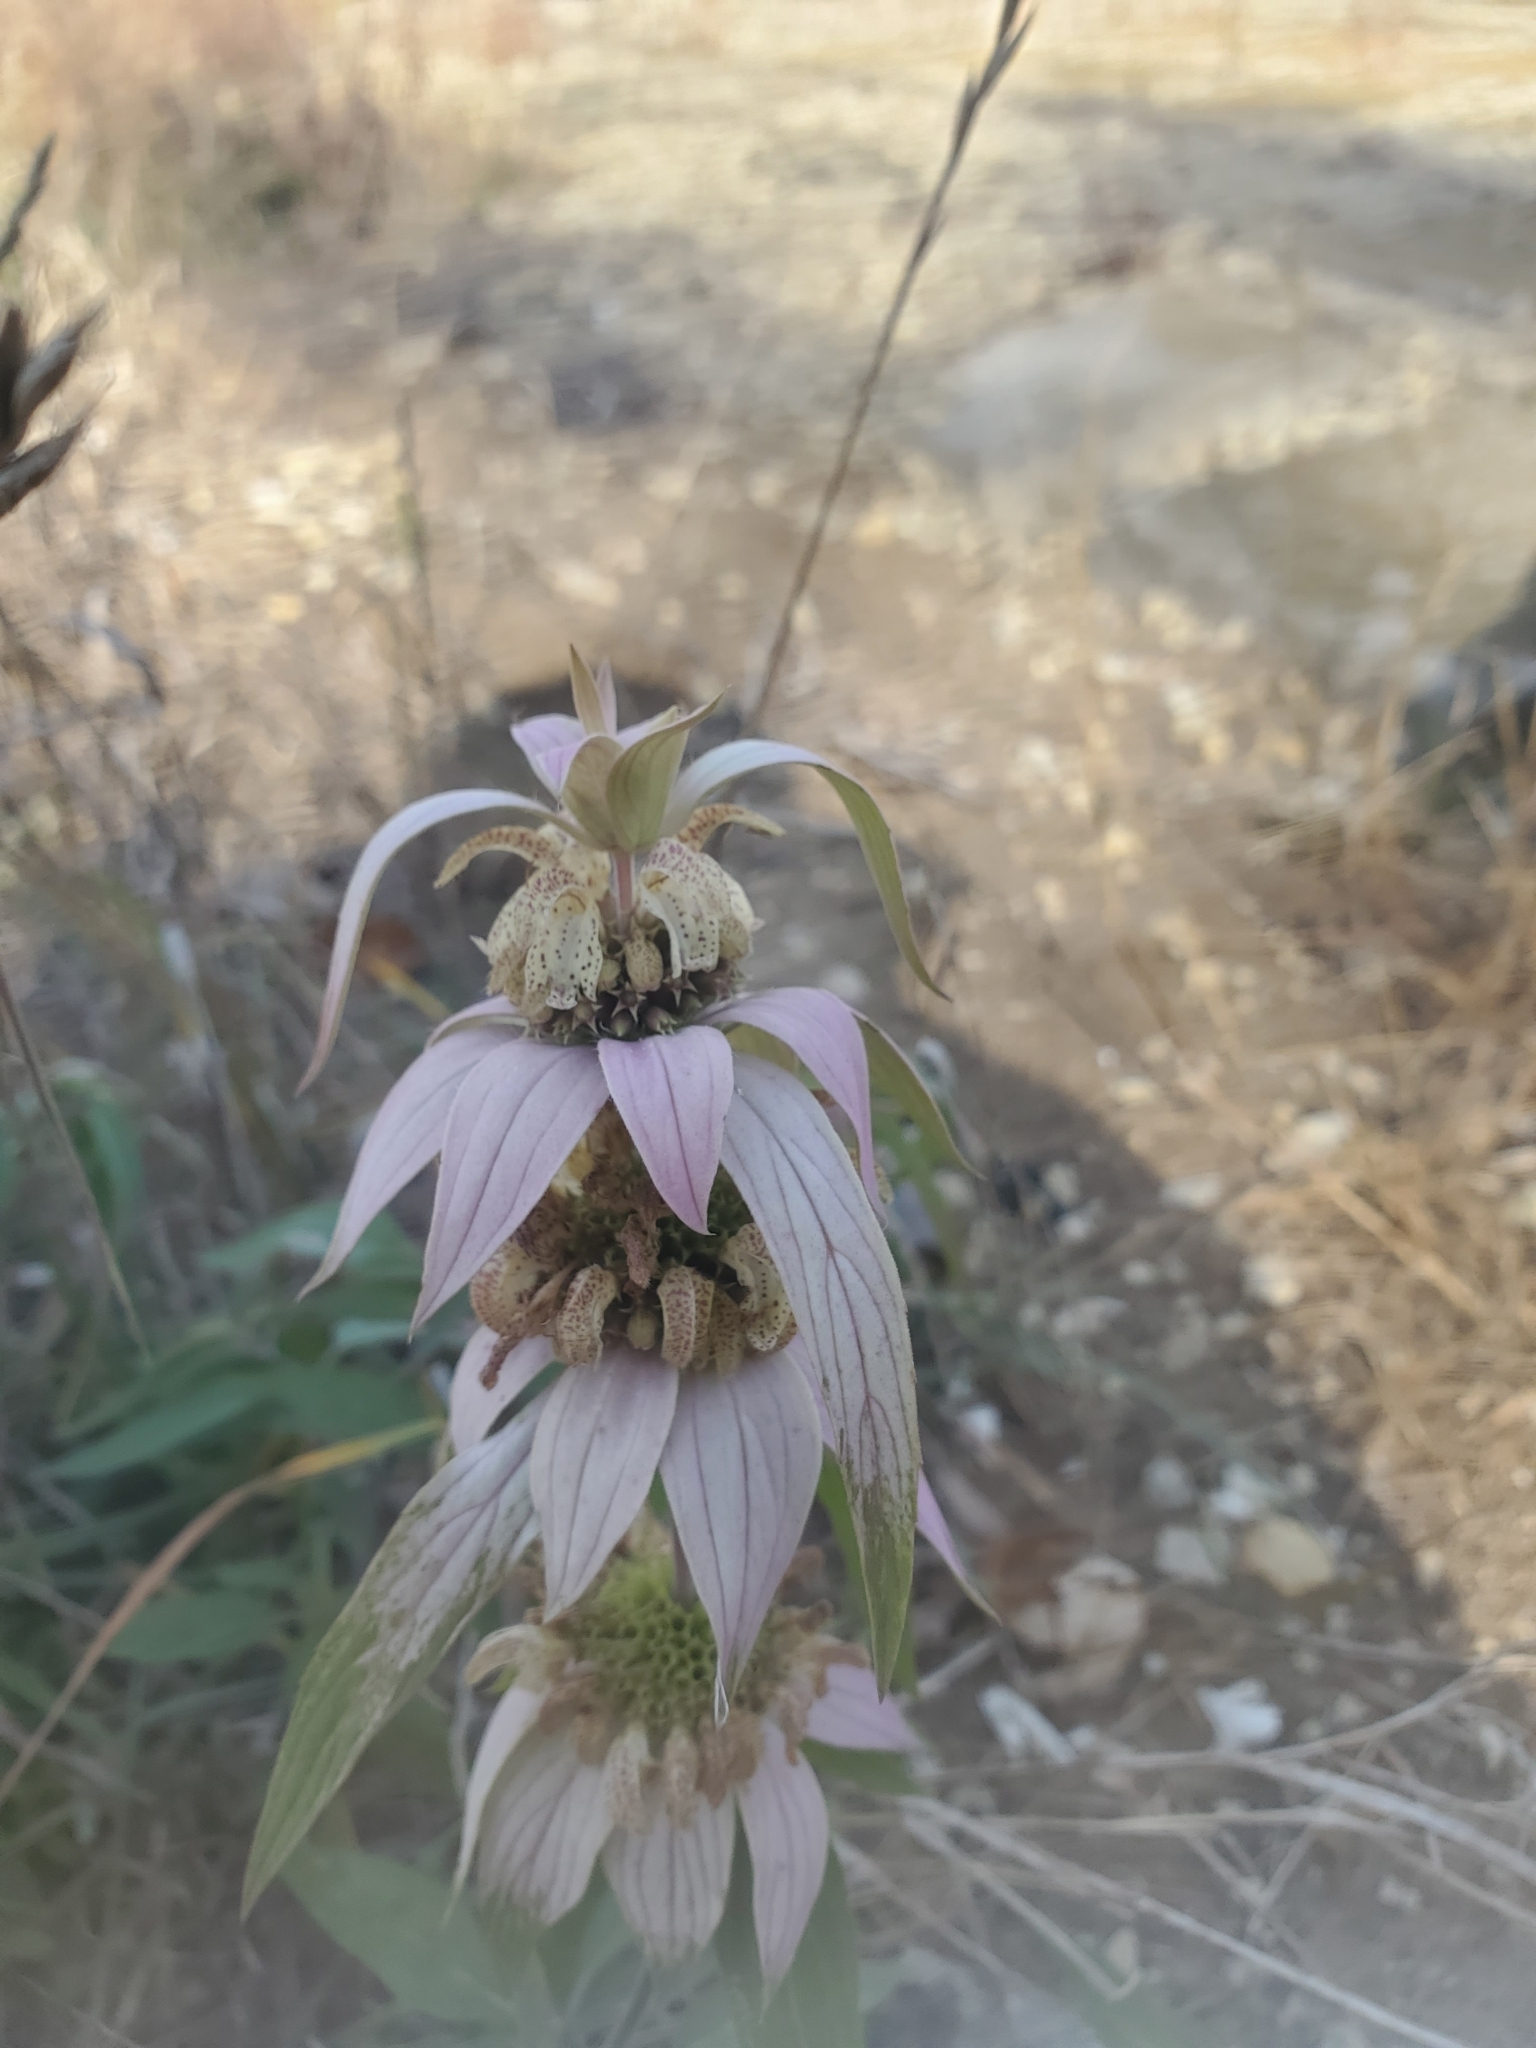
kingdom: Plantae
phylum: Tracheophyta
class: Magnoliopsida
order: Lamiales
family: Lamiaceae
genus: Monarda
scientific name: Monarda punctata
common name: Dotted monarda
